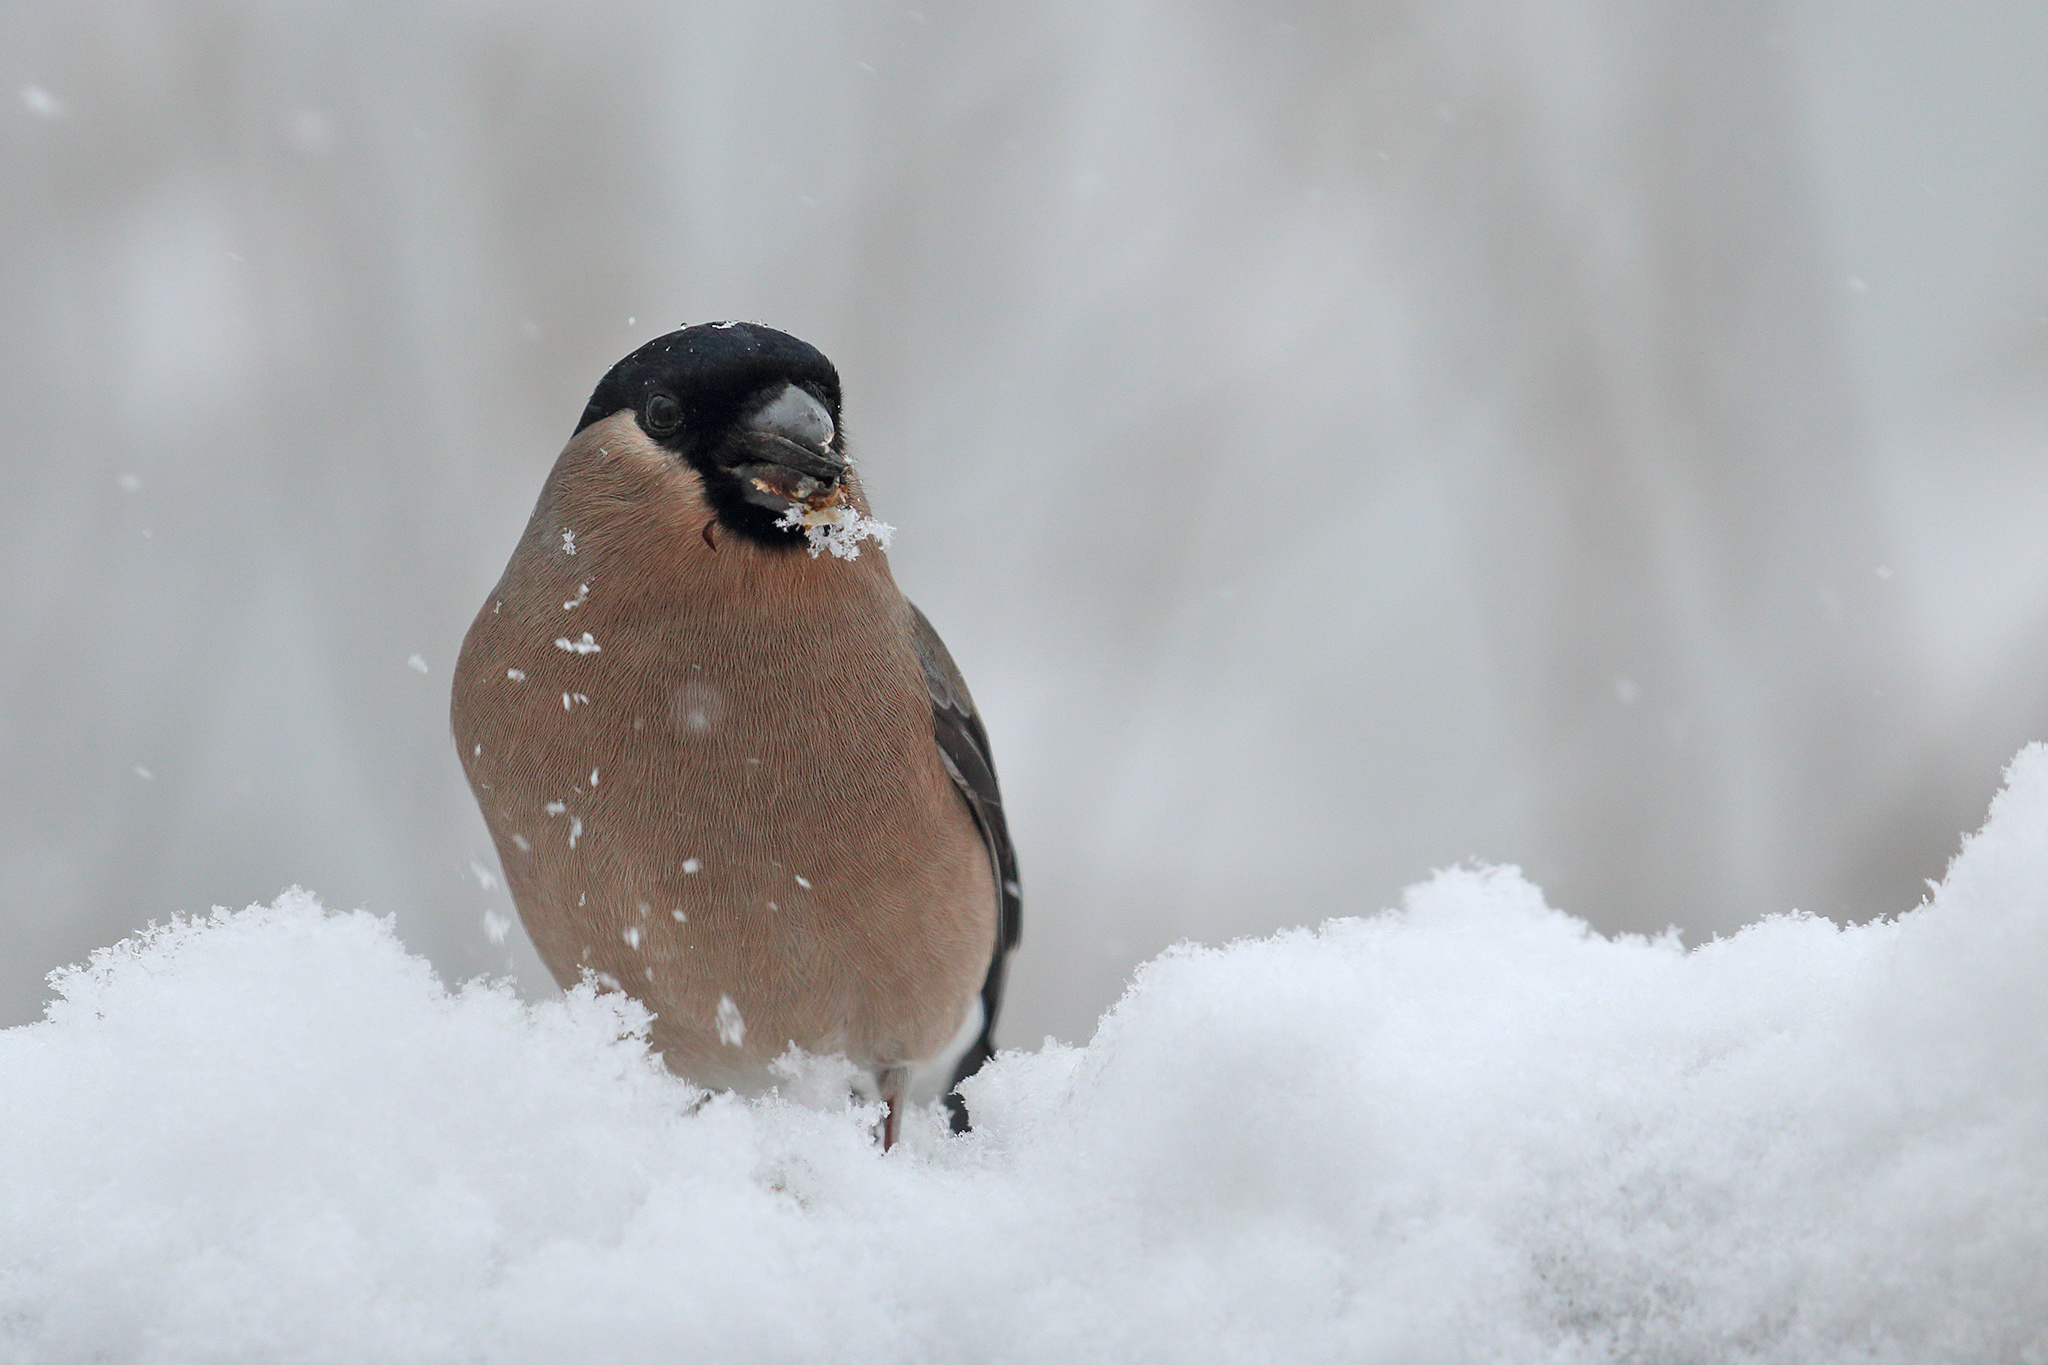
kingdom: Animalia
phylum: Chordata
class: Aves
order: Passeriformes
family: Fringillidae
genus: Pyrrhula
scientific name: Pyrrhula pyrrhula
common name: Eurasian bullfinch
